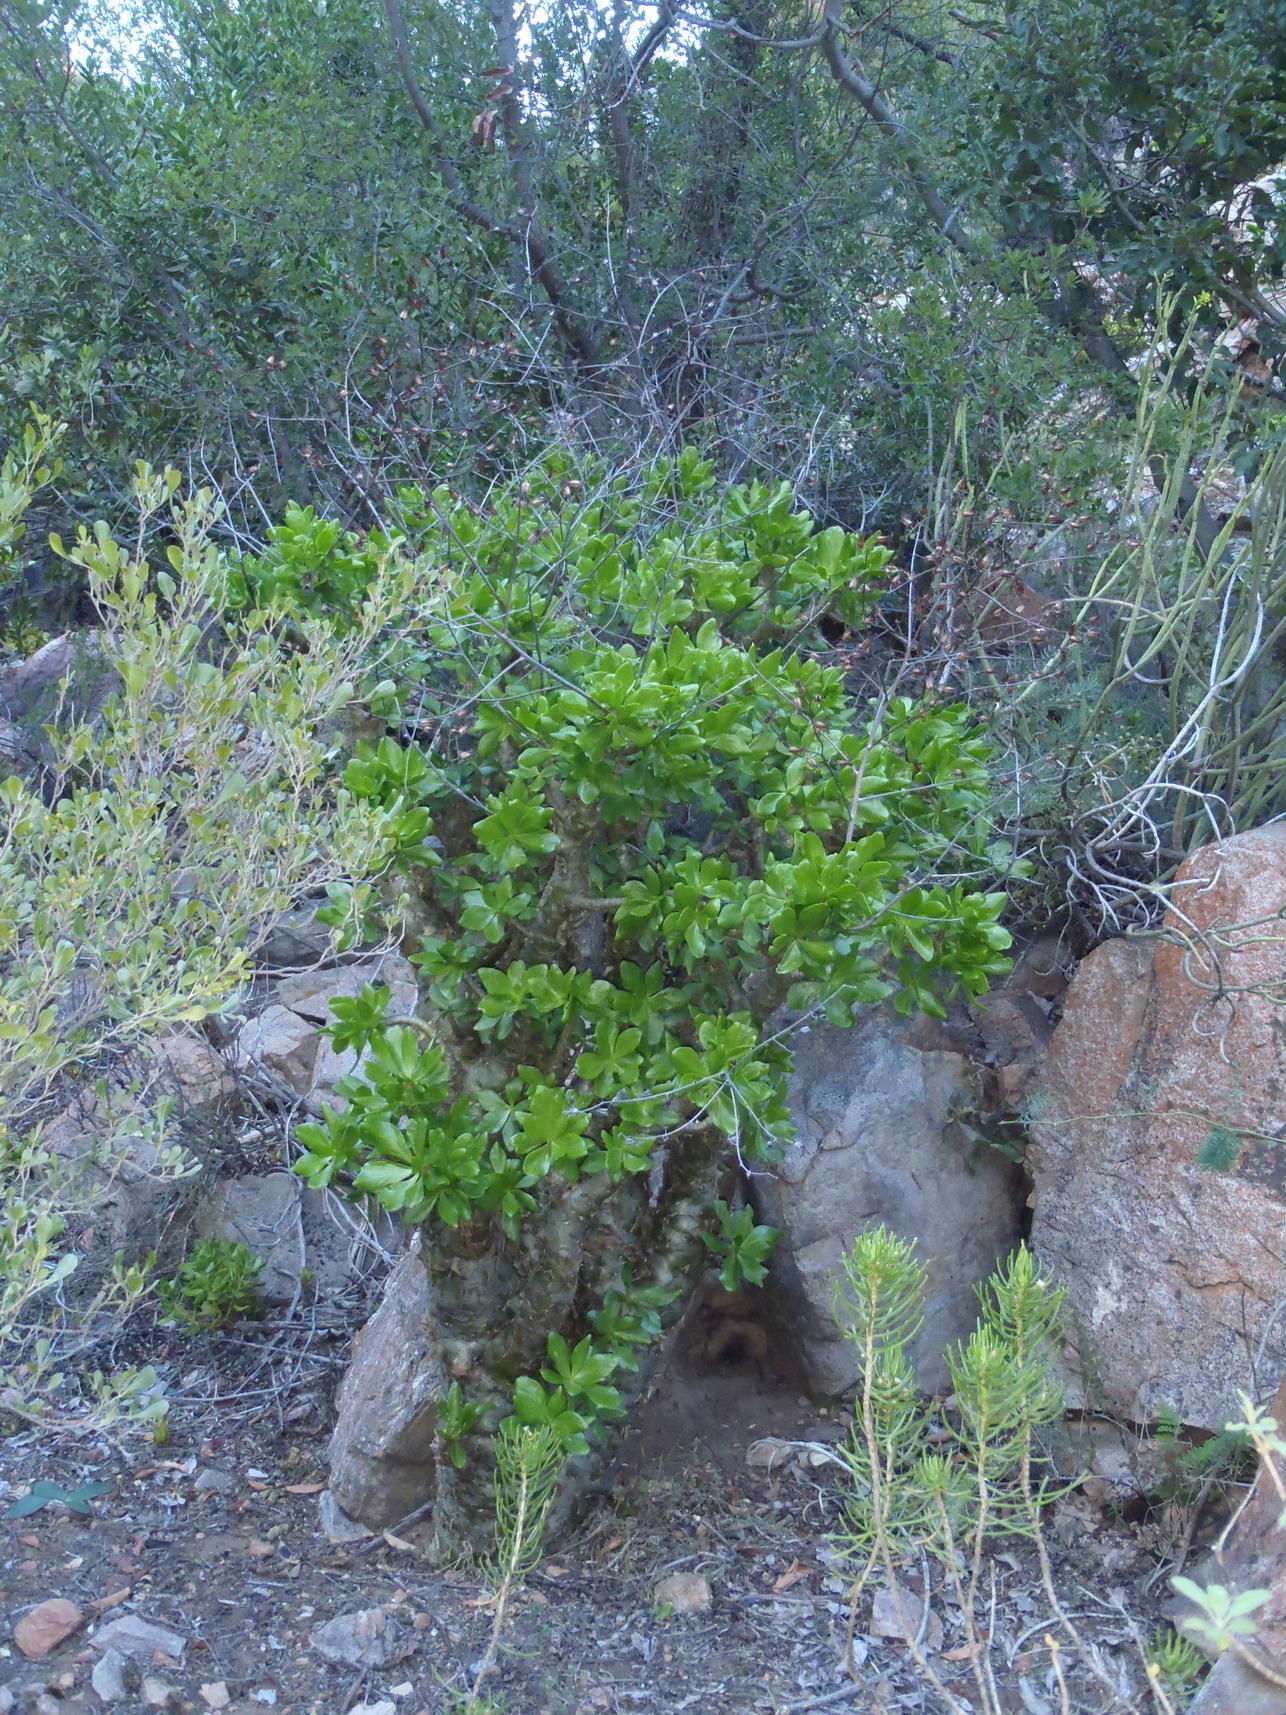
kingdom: Plantae
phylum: Tracheophyta
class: Magnoliopsida
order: Saxifragales
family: Crassulaceae
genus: Tylecodon
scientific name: Tylecodon paniculatus
